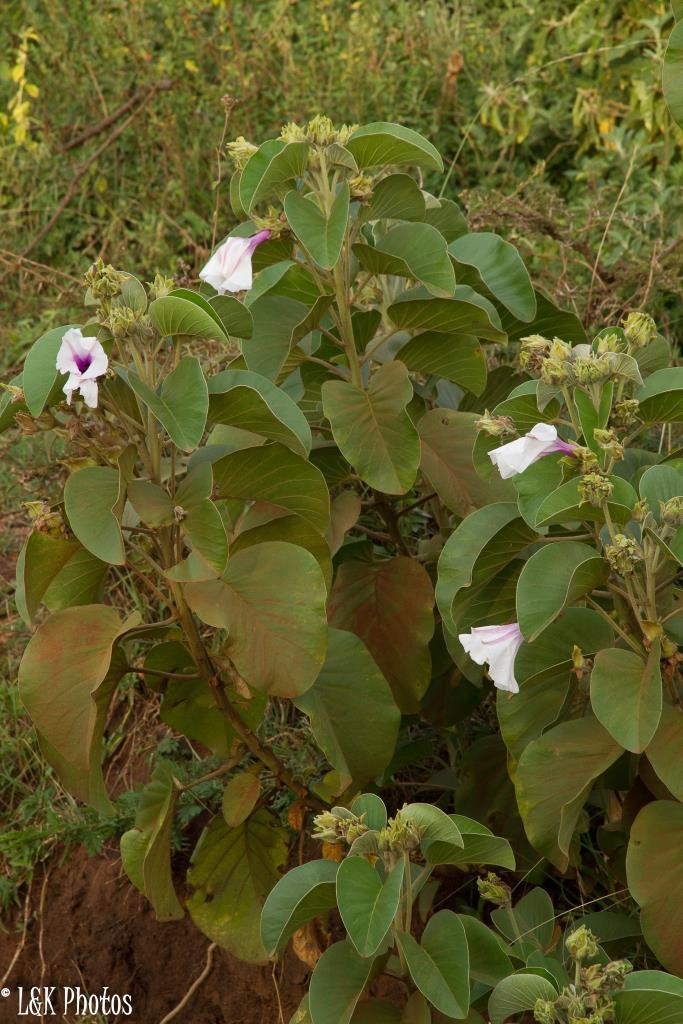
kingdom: Plantae
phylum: Tracheophyta
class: Magnoliopsida
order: Solanales
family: Convolvulaceae
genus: Ipomoea
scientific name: Ipomoea hildebrandtii
